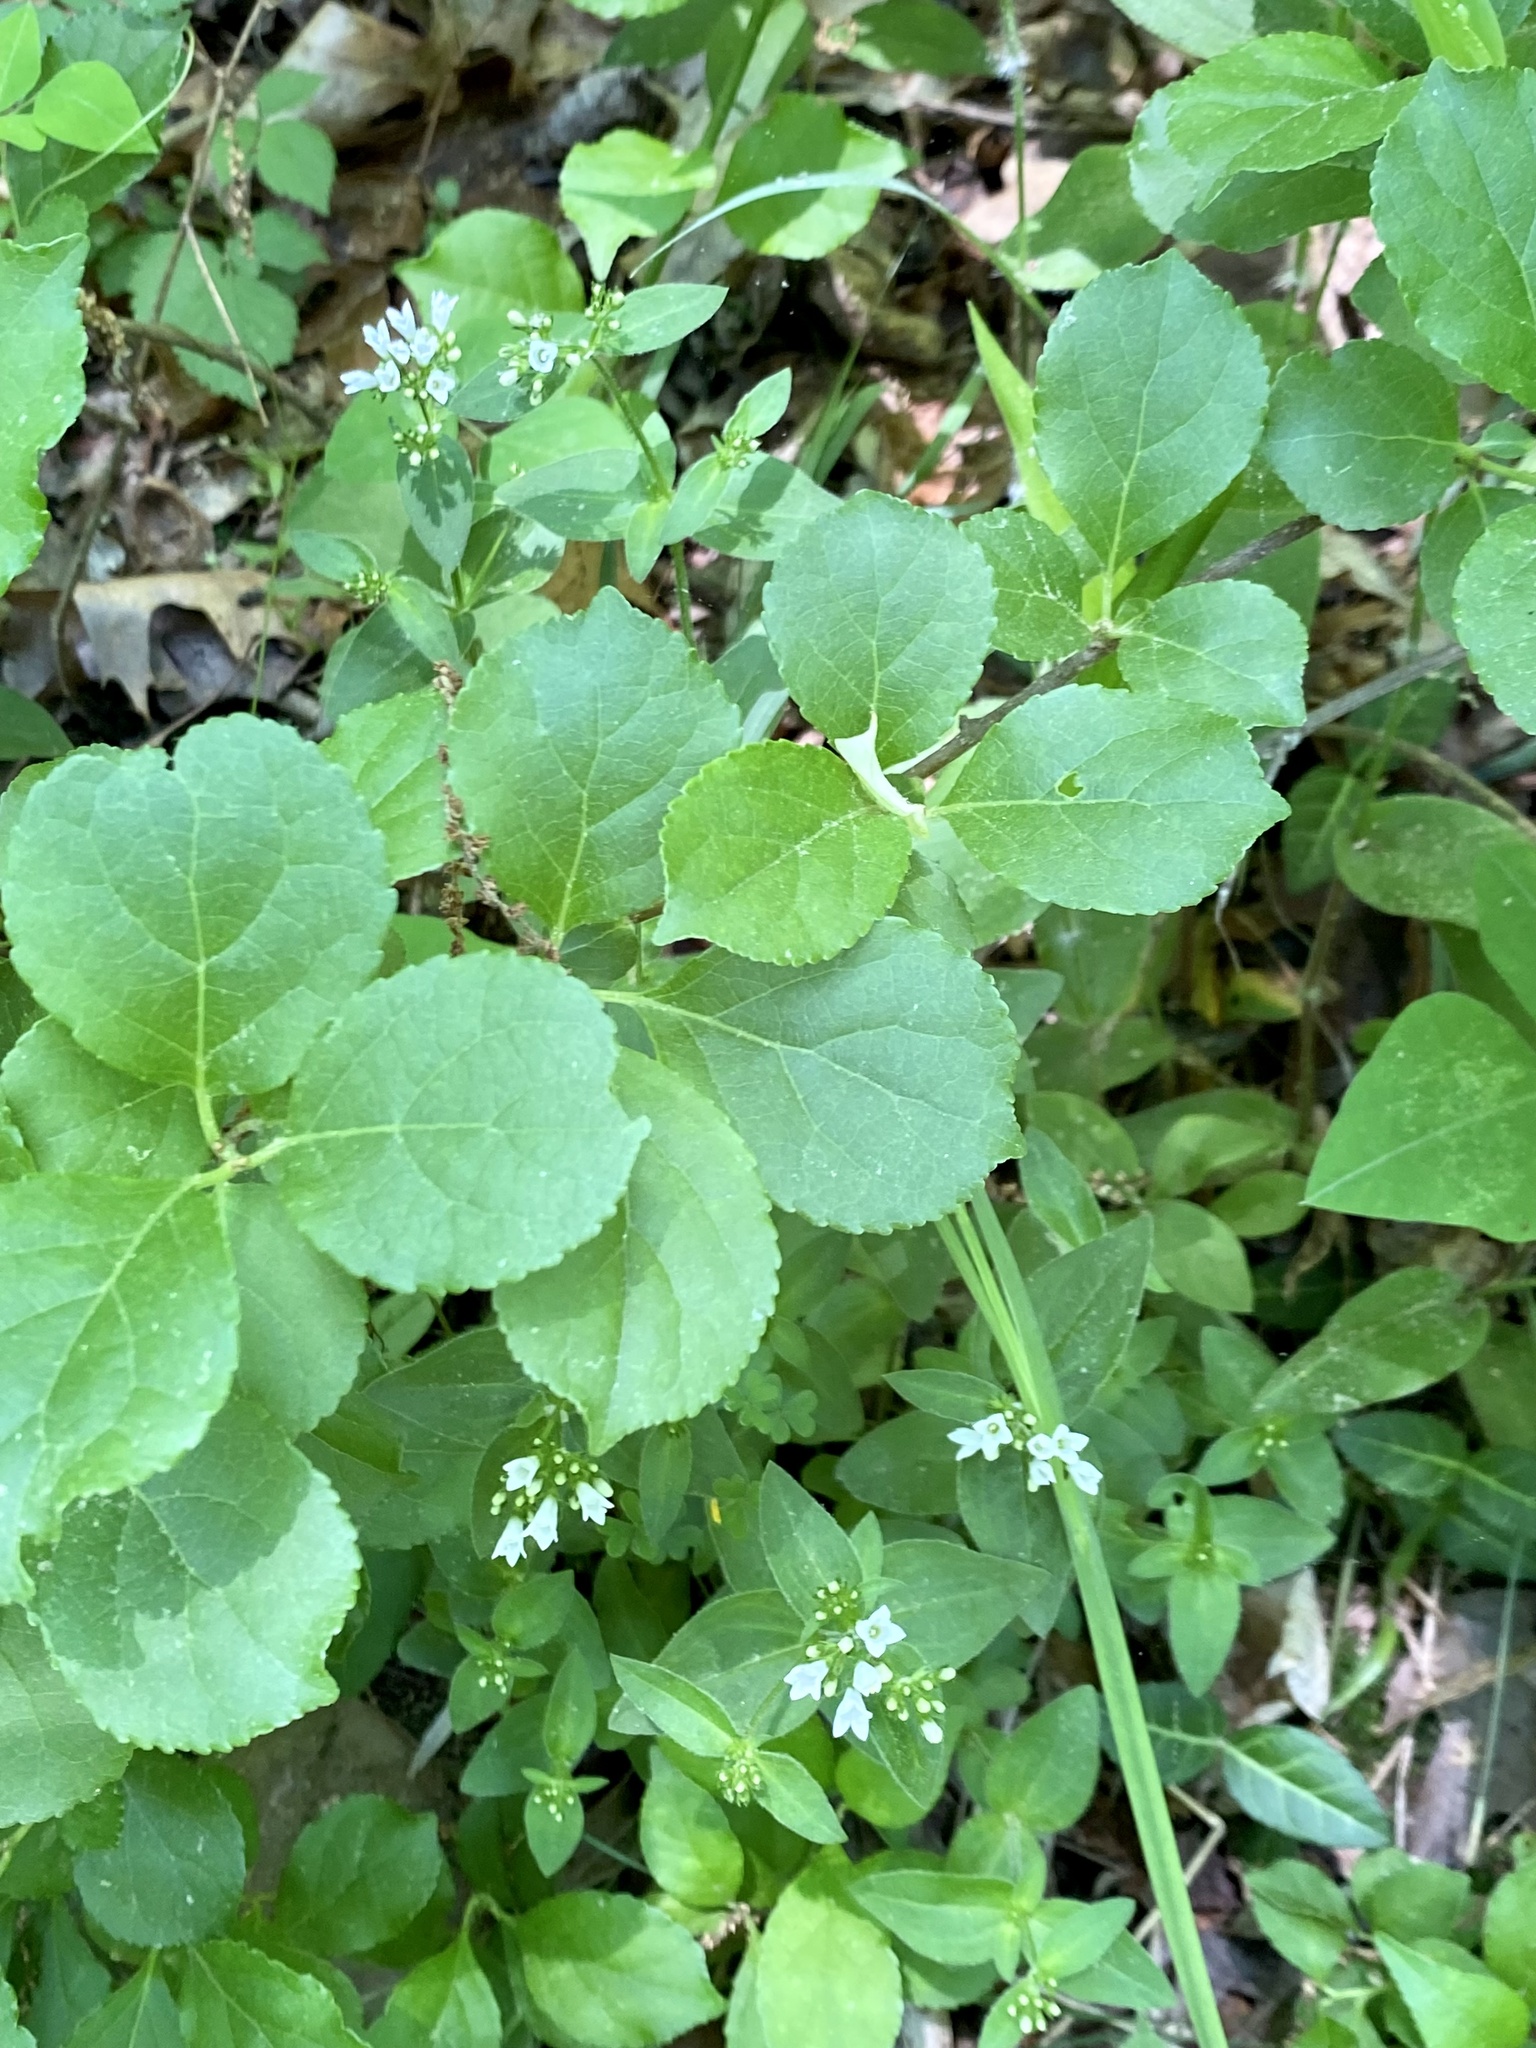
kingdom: Plantae
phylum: Tracheophyta
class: Magnoliopsida
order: Celastrales
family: Celastraceae
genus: Celastrus
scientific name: Celastrus orbiculatus
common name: Oriental bittersweet
